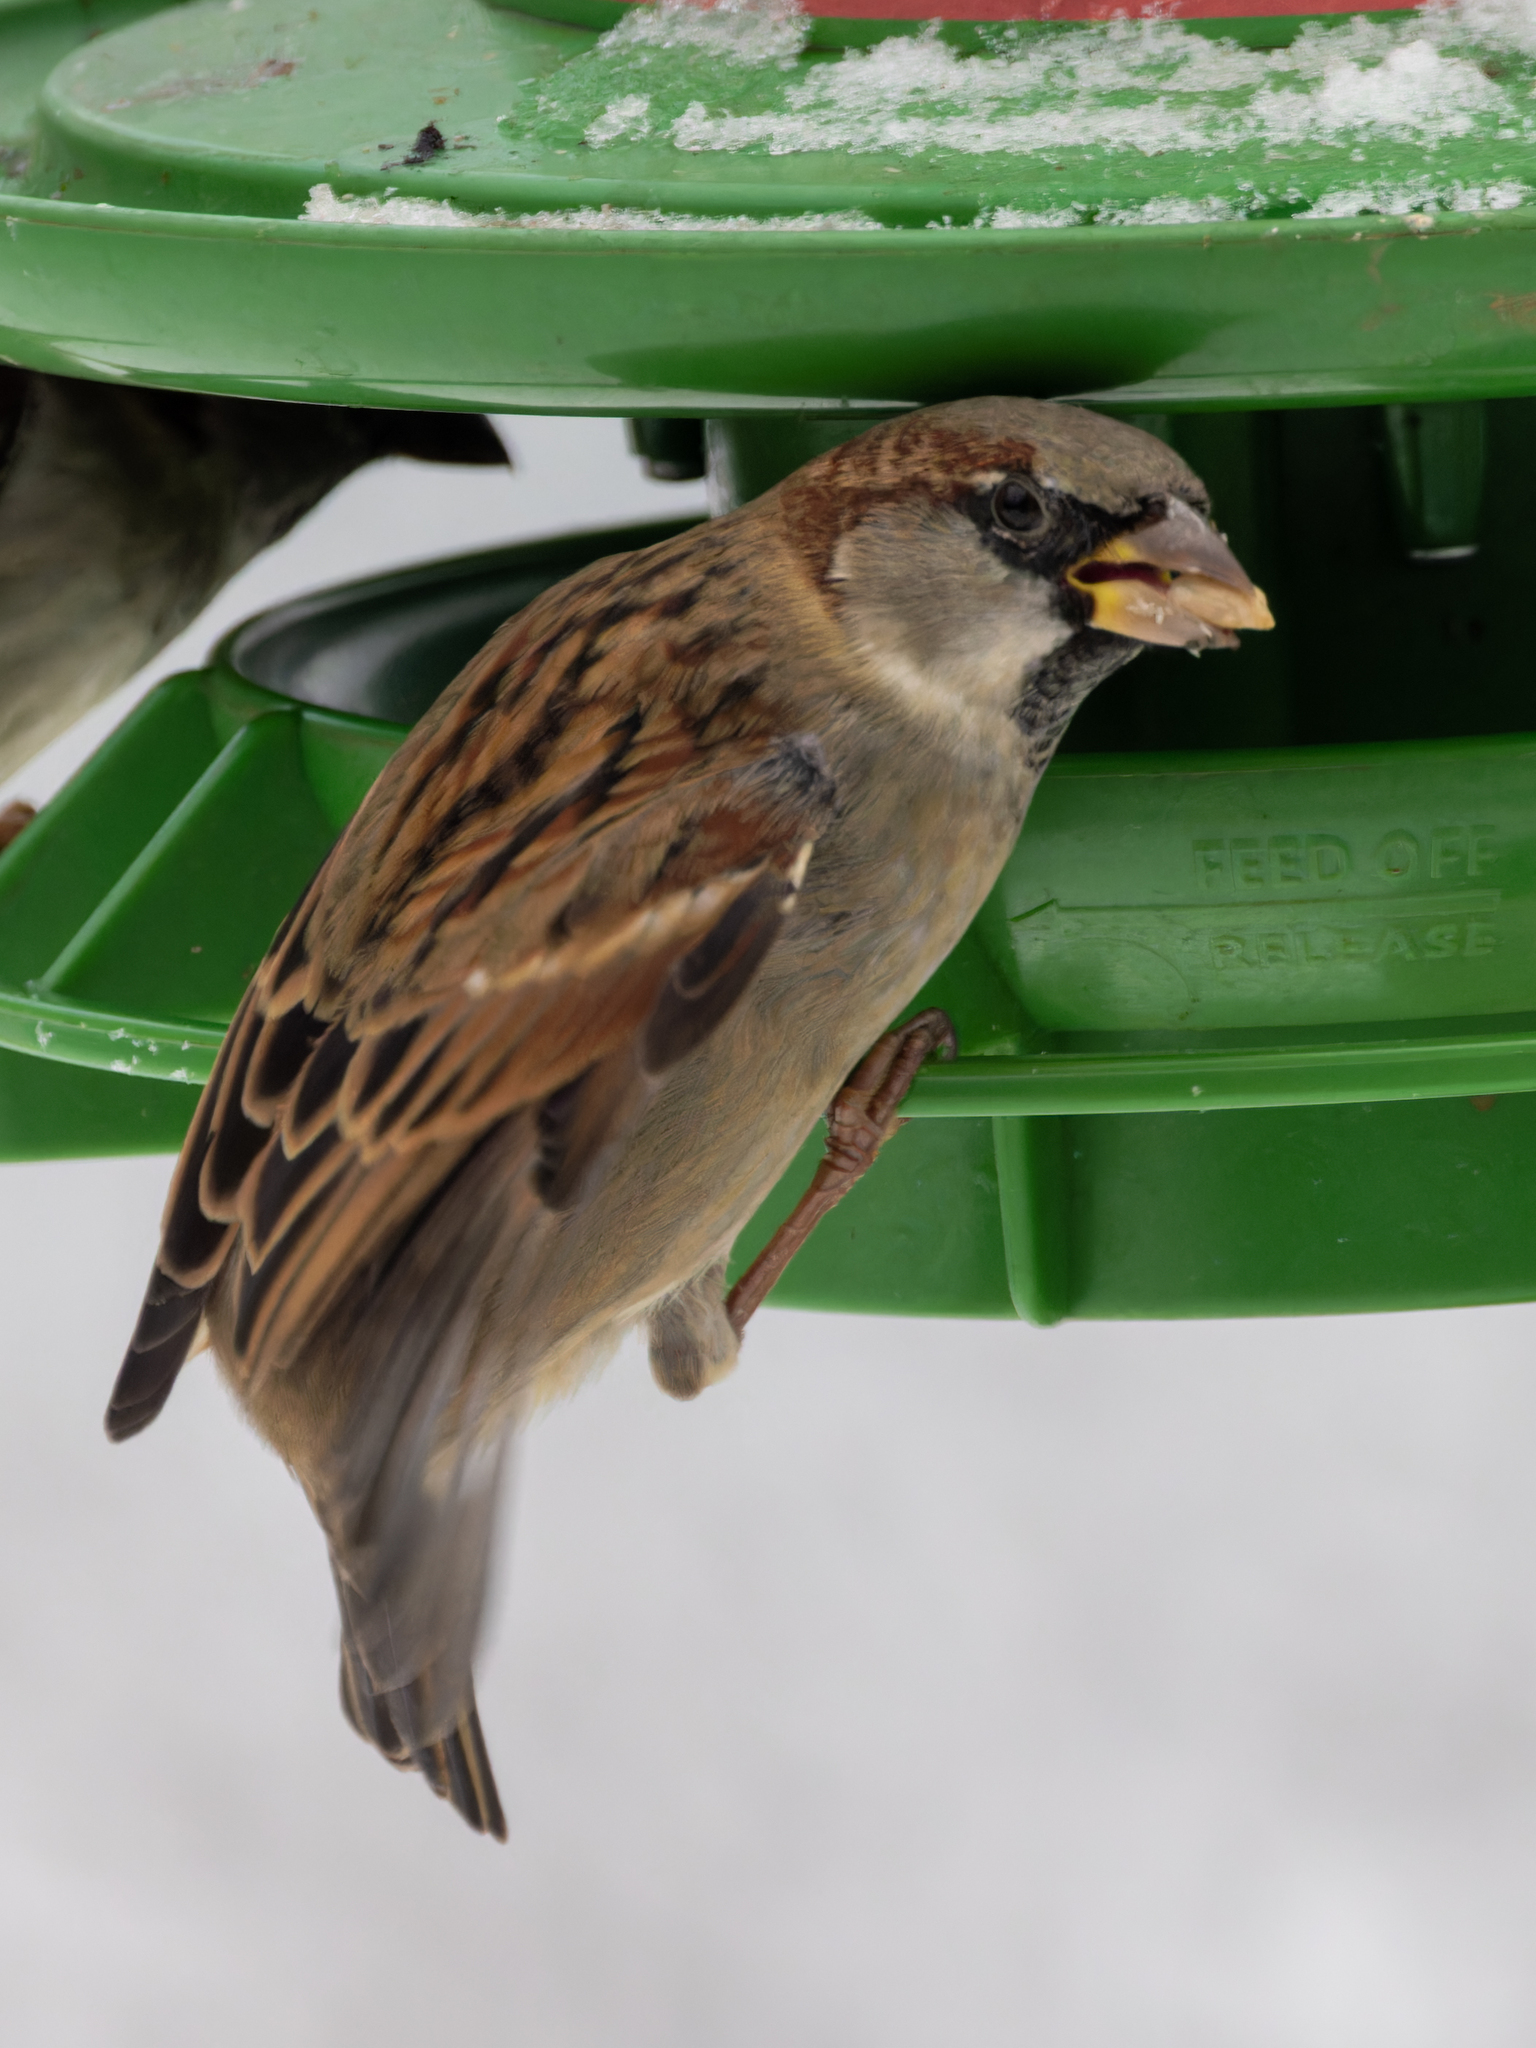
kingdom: Animalia
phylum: Chordata
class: Aves
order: Passeriformes
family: Passeridae
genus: Passer
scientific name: Passer domesticus
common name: House sparrow
